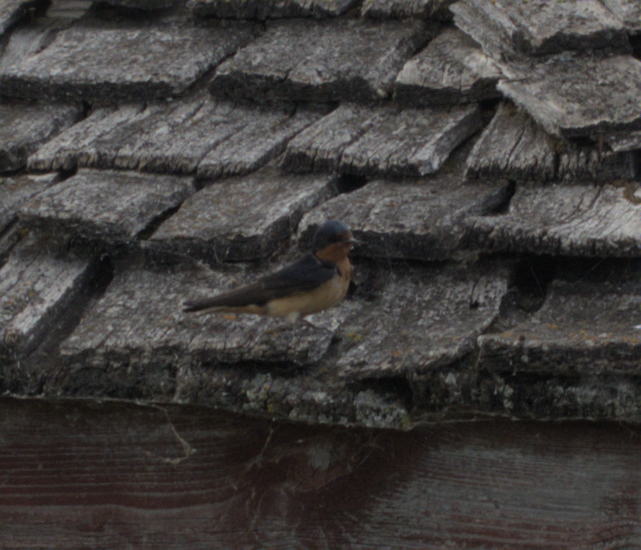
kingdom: Animalia
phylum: Chordata
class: Aves
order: Passeriformes
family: Hirundinidae
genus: Hirundo
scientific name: Hirundo rustica
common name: Barn swallow
